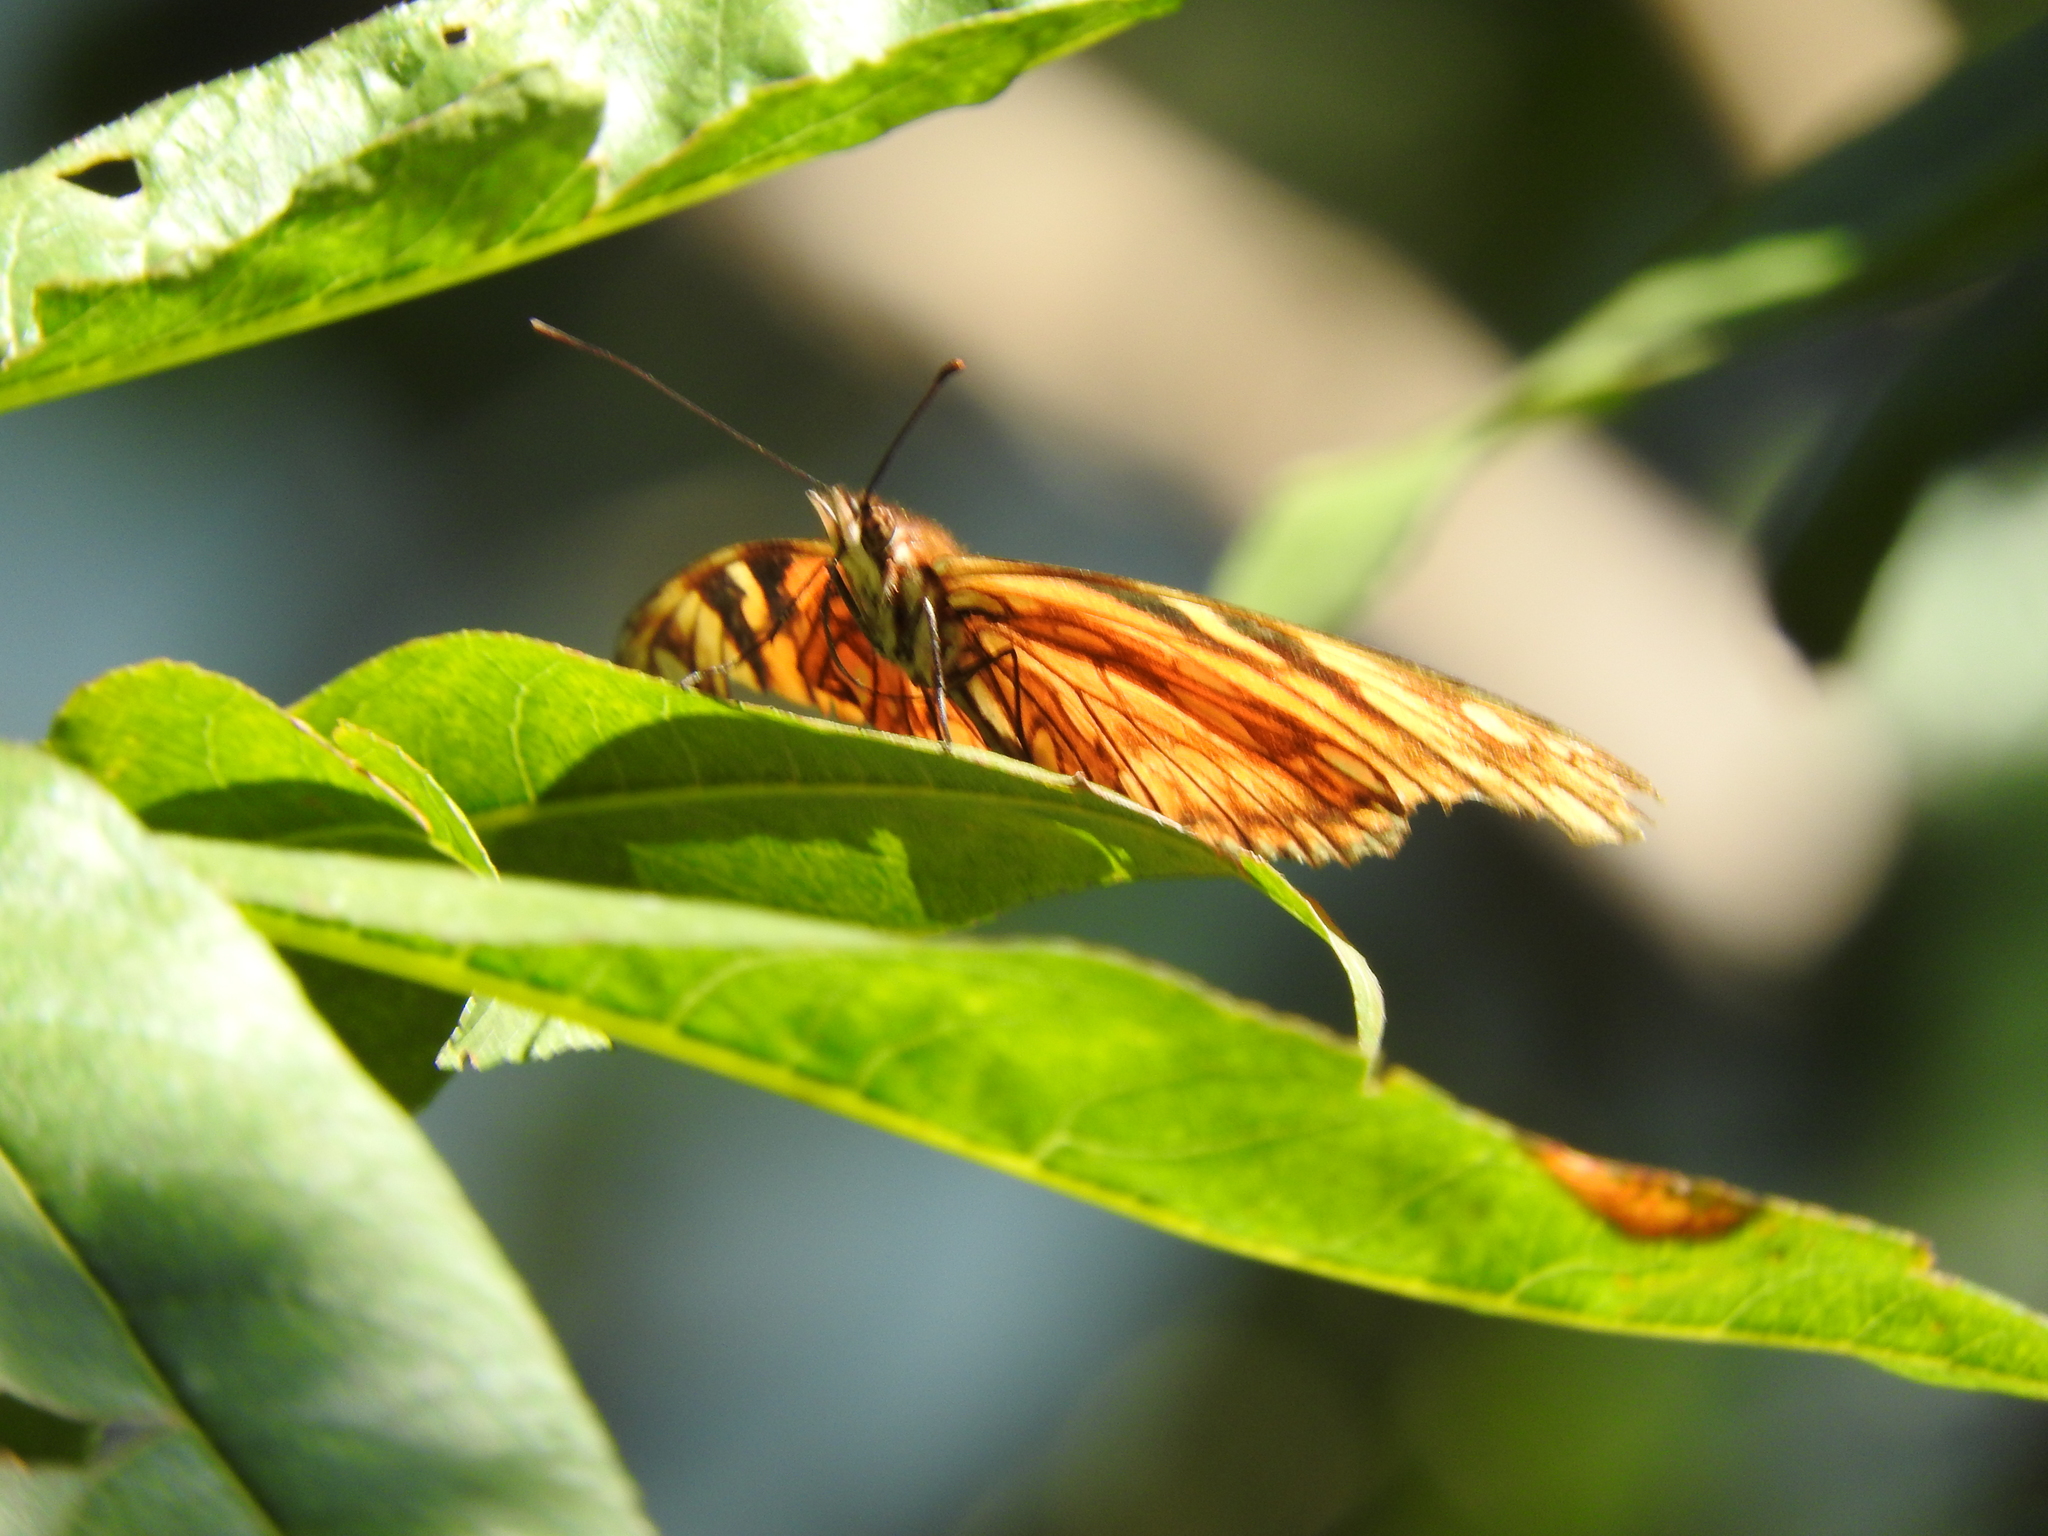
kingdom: Animalia
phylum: Arthropoda
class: Insecta
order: Lepidoptera
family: Nymphalidae
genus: Dione
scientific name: Dione juno
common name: Juno silverspot
